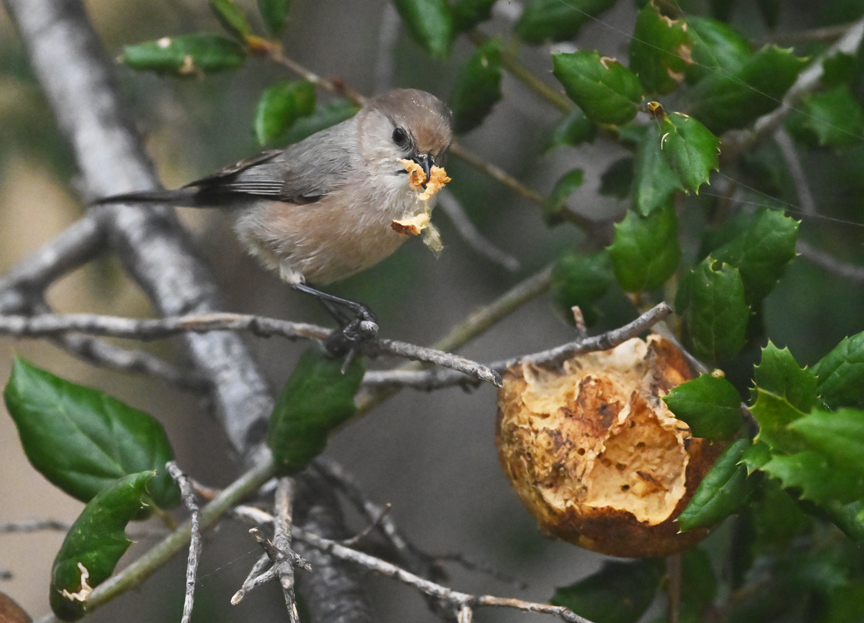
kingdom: Animalia
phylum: Chordata
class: Aves
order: Passeriformes
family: Aegithalidae
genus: Psaltriparus
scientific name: Psaltriparus minimus
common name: American bushtit
